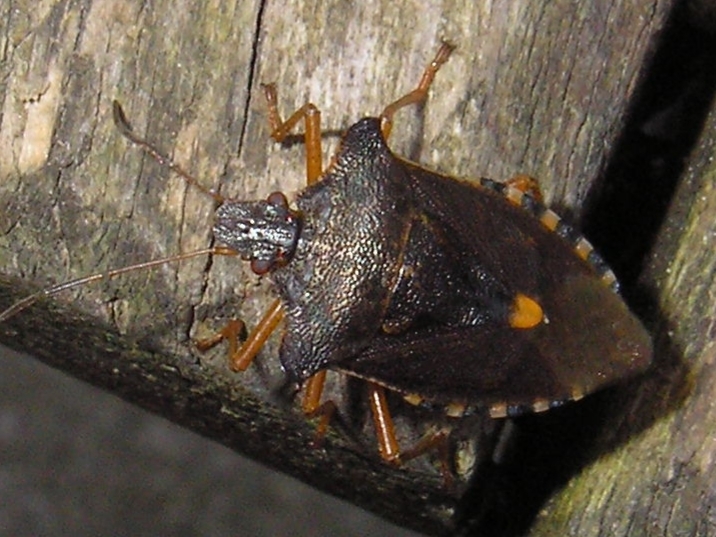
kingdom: Animalia
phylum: Arthropoda
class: Insecta
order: Hemiptera
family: Pentatomidae
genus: Pentatoma
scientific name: Pentatoma rufipes
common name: Forest bug
